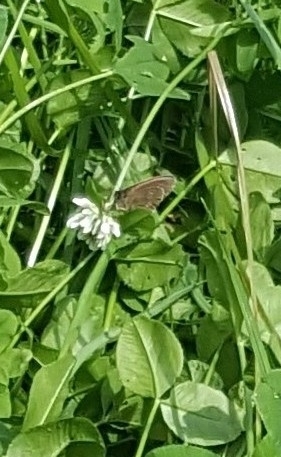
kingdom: Animalia
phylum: Arthropoda
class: Insecta
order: Lepidoptera
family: Nymphalidae
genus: Aphantopus
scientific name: Aphantopus hyperantus
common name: Ringlet
